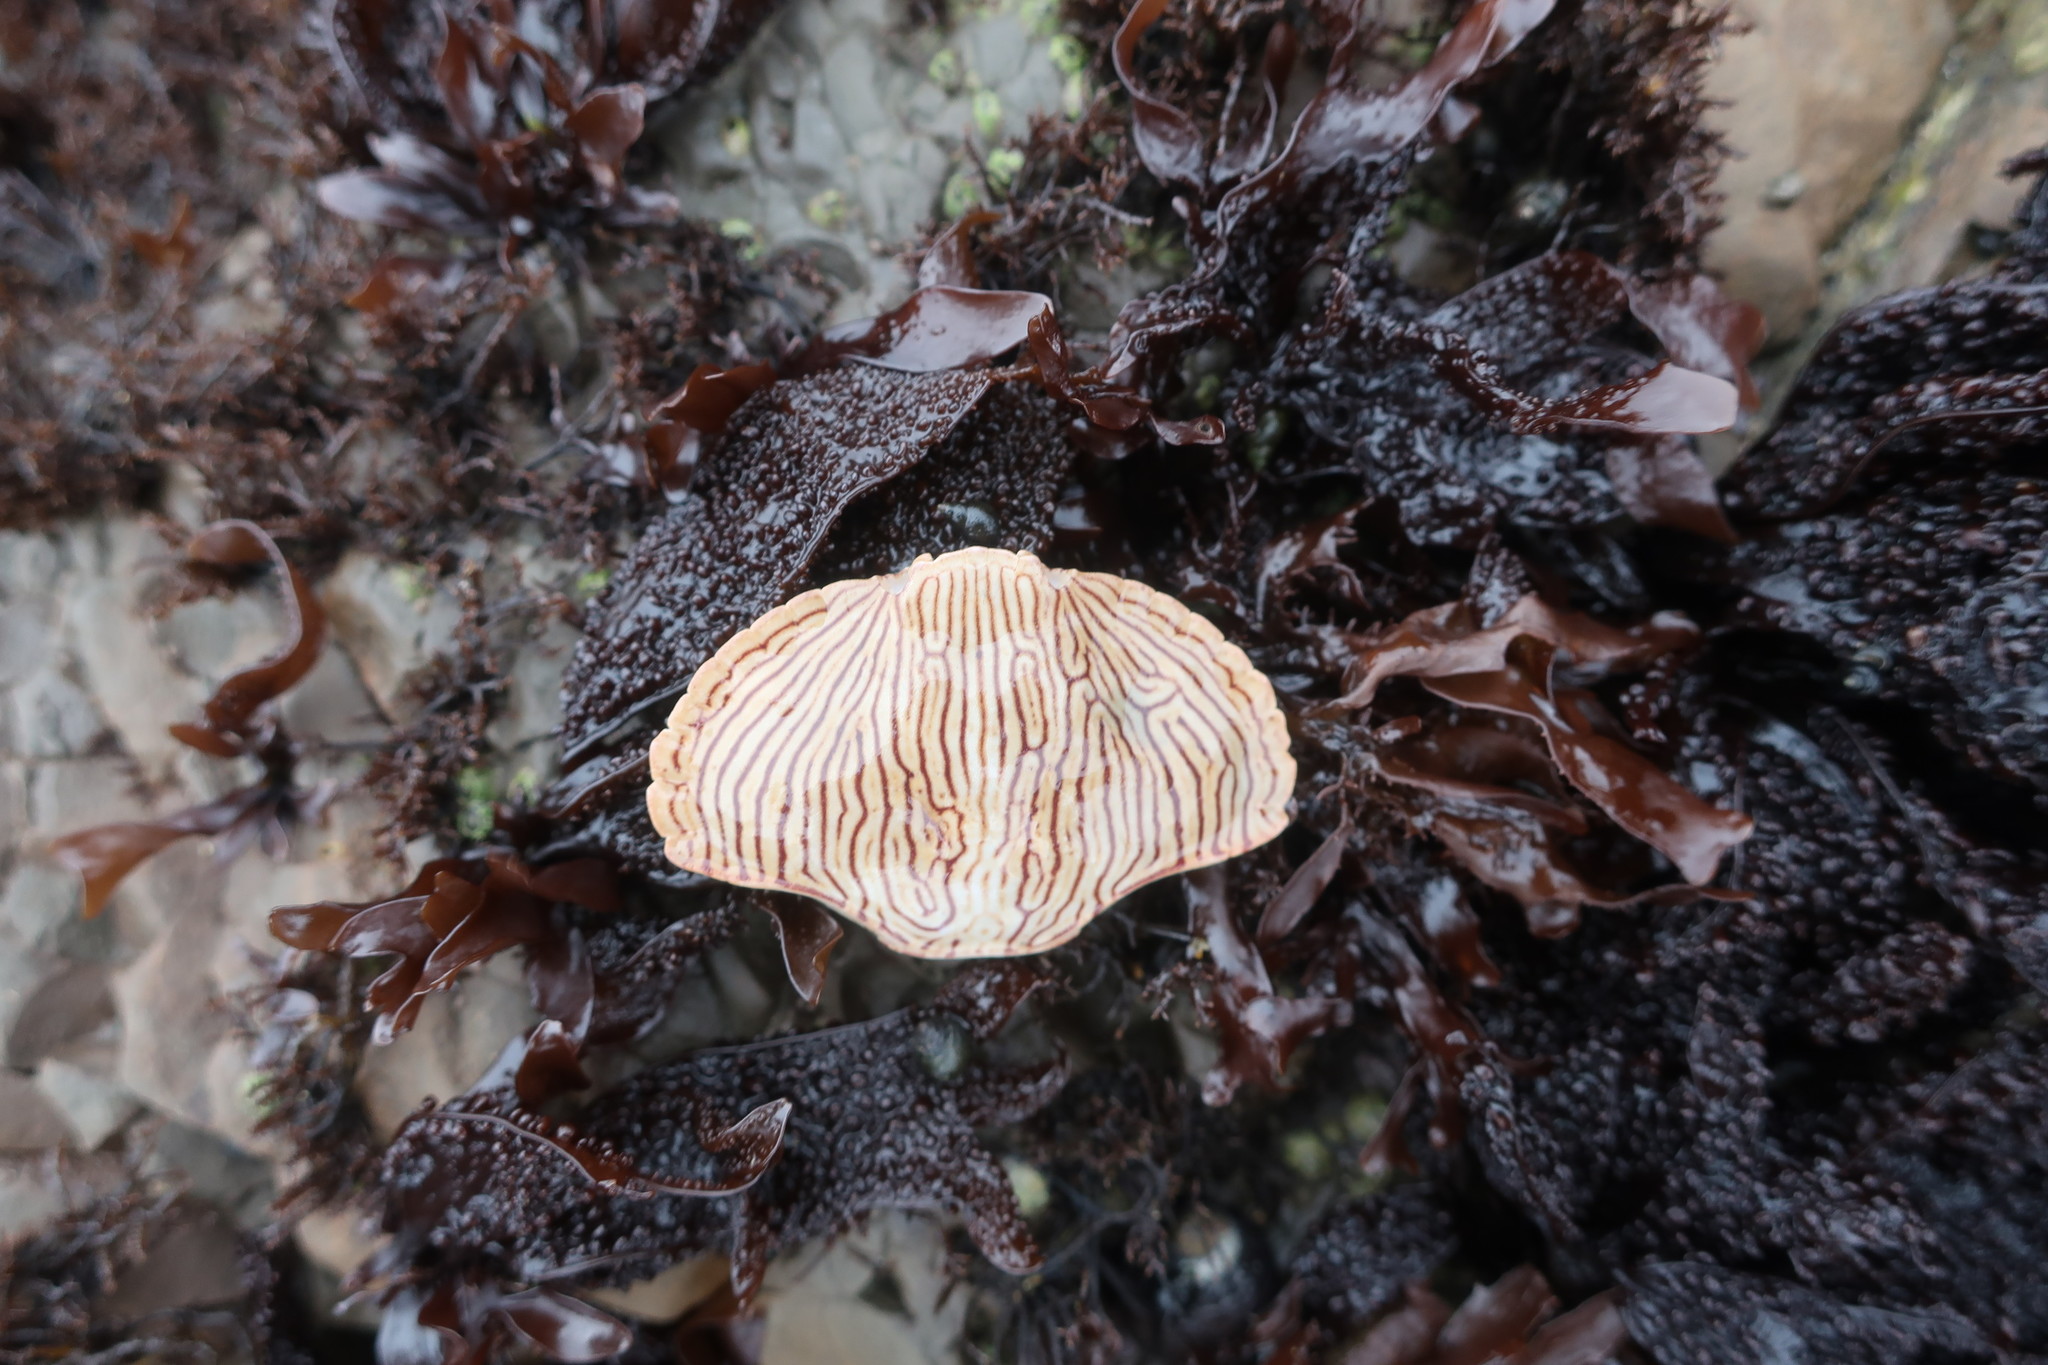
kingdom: Animalia
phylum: Arthropoda
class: Malacostraca
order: Decapoda
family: Cancridae
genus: Cancer
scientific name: Cancer productus
